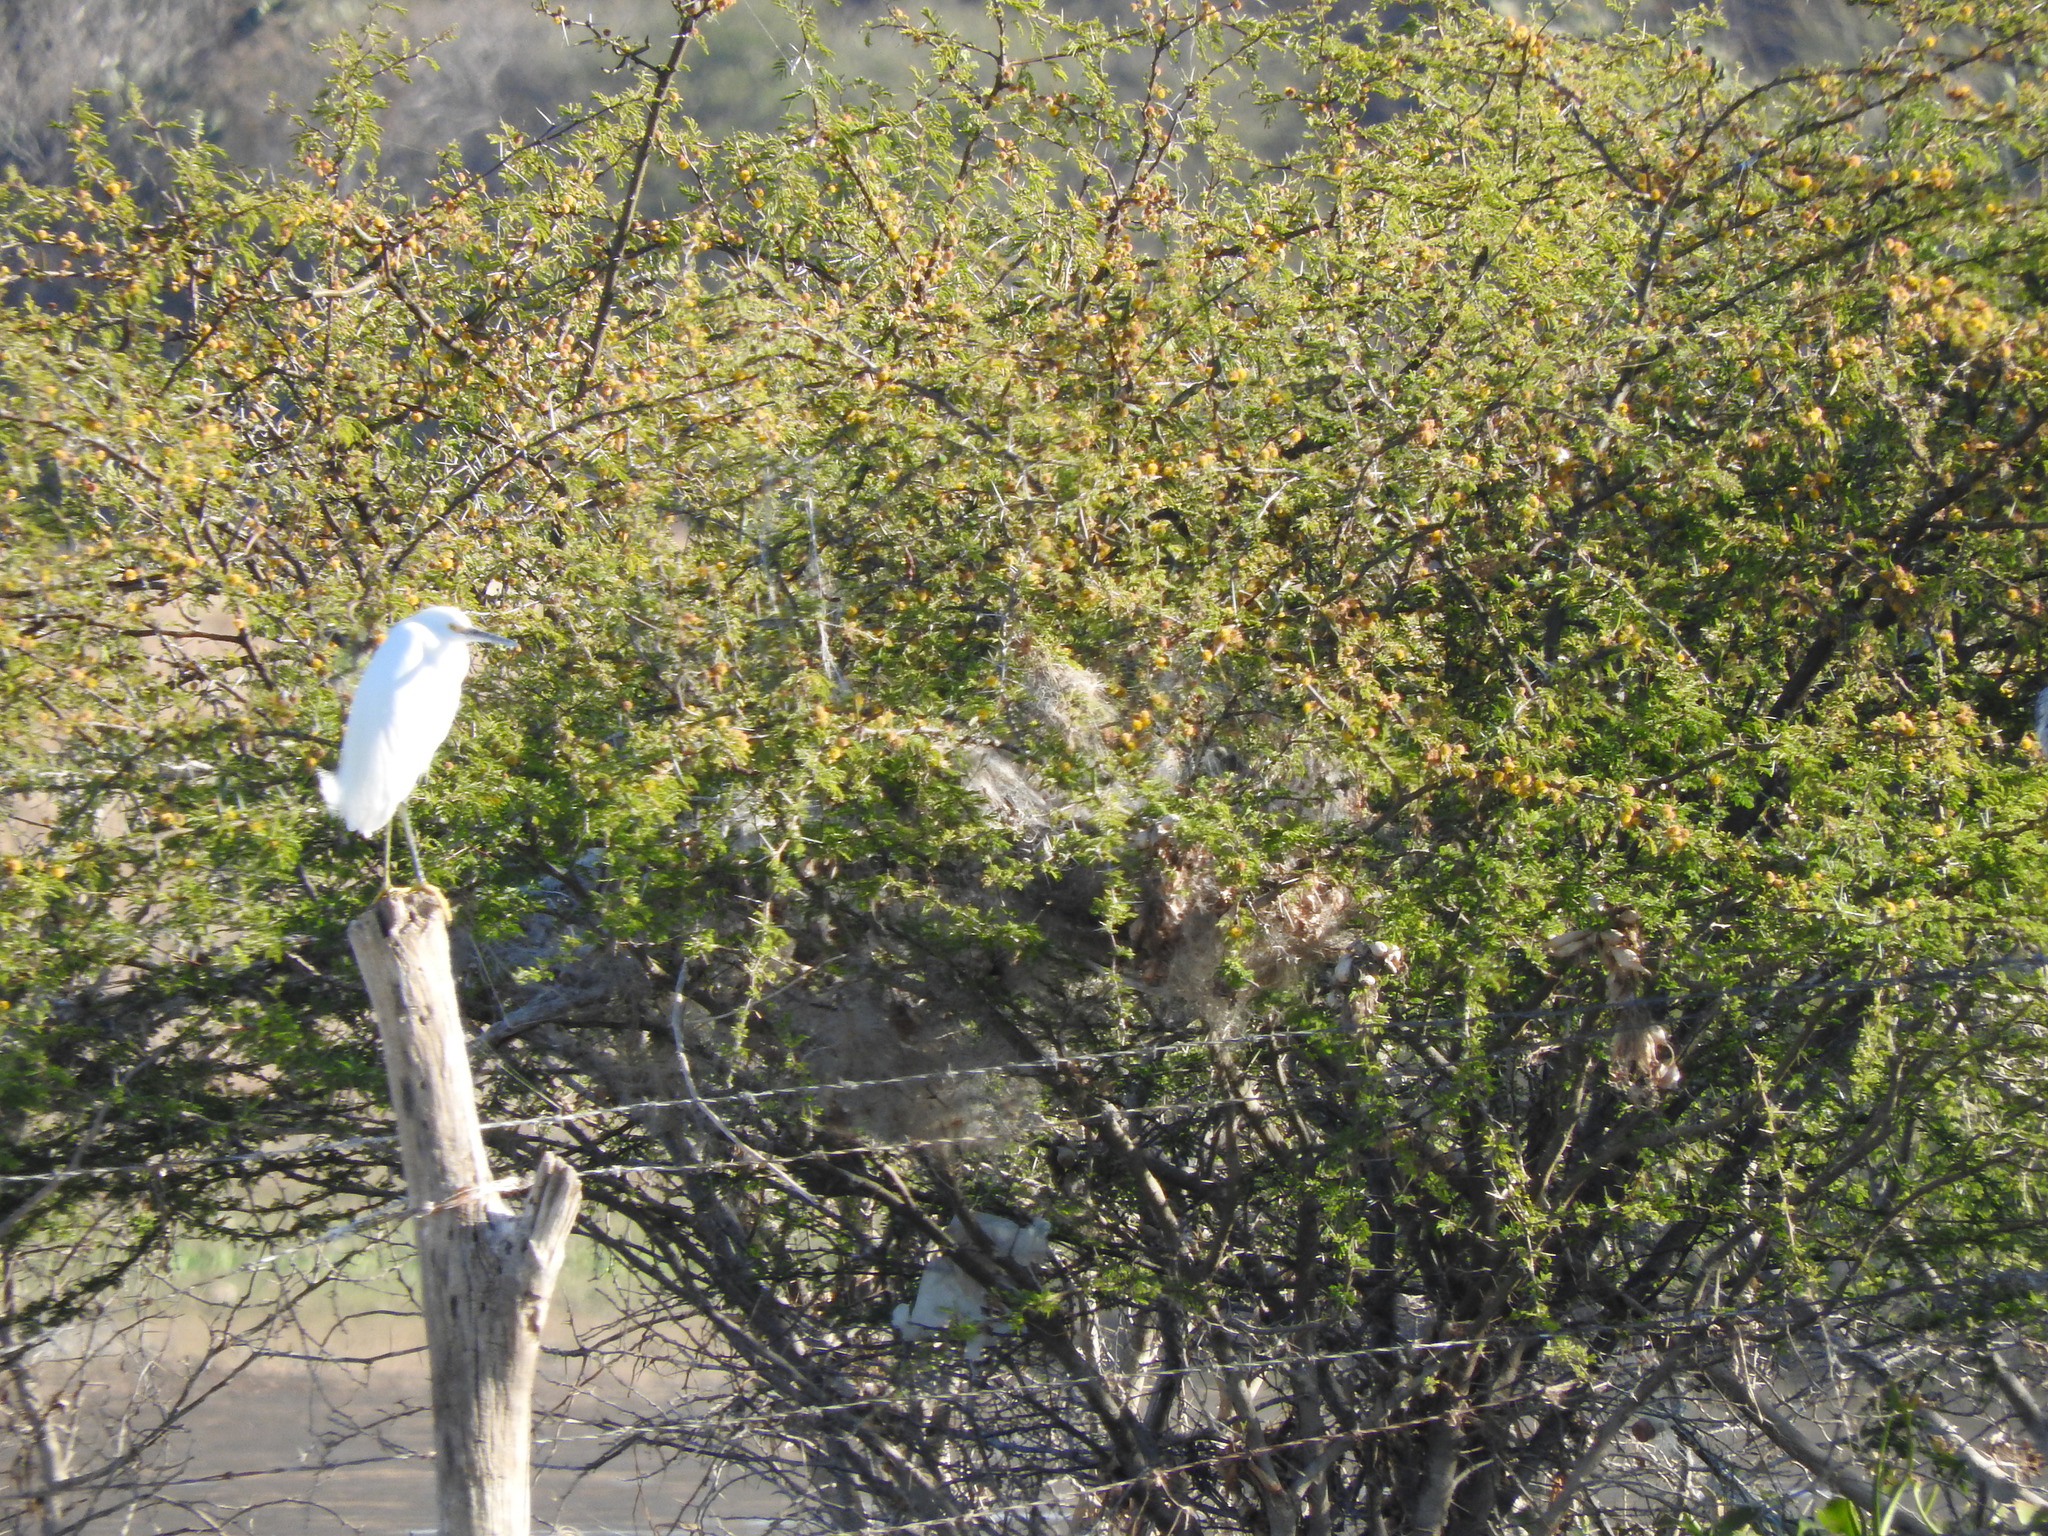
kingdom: Animalia
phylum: Chordata
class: Aves
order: Pelecaniformes
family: Ardeidae
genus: Egretta
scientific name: Egretta thula
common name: Snowy egret
